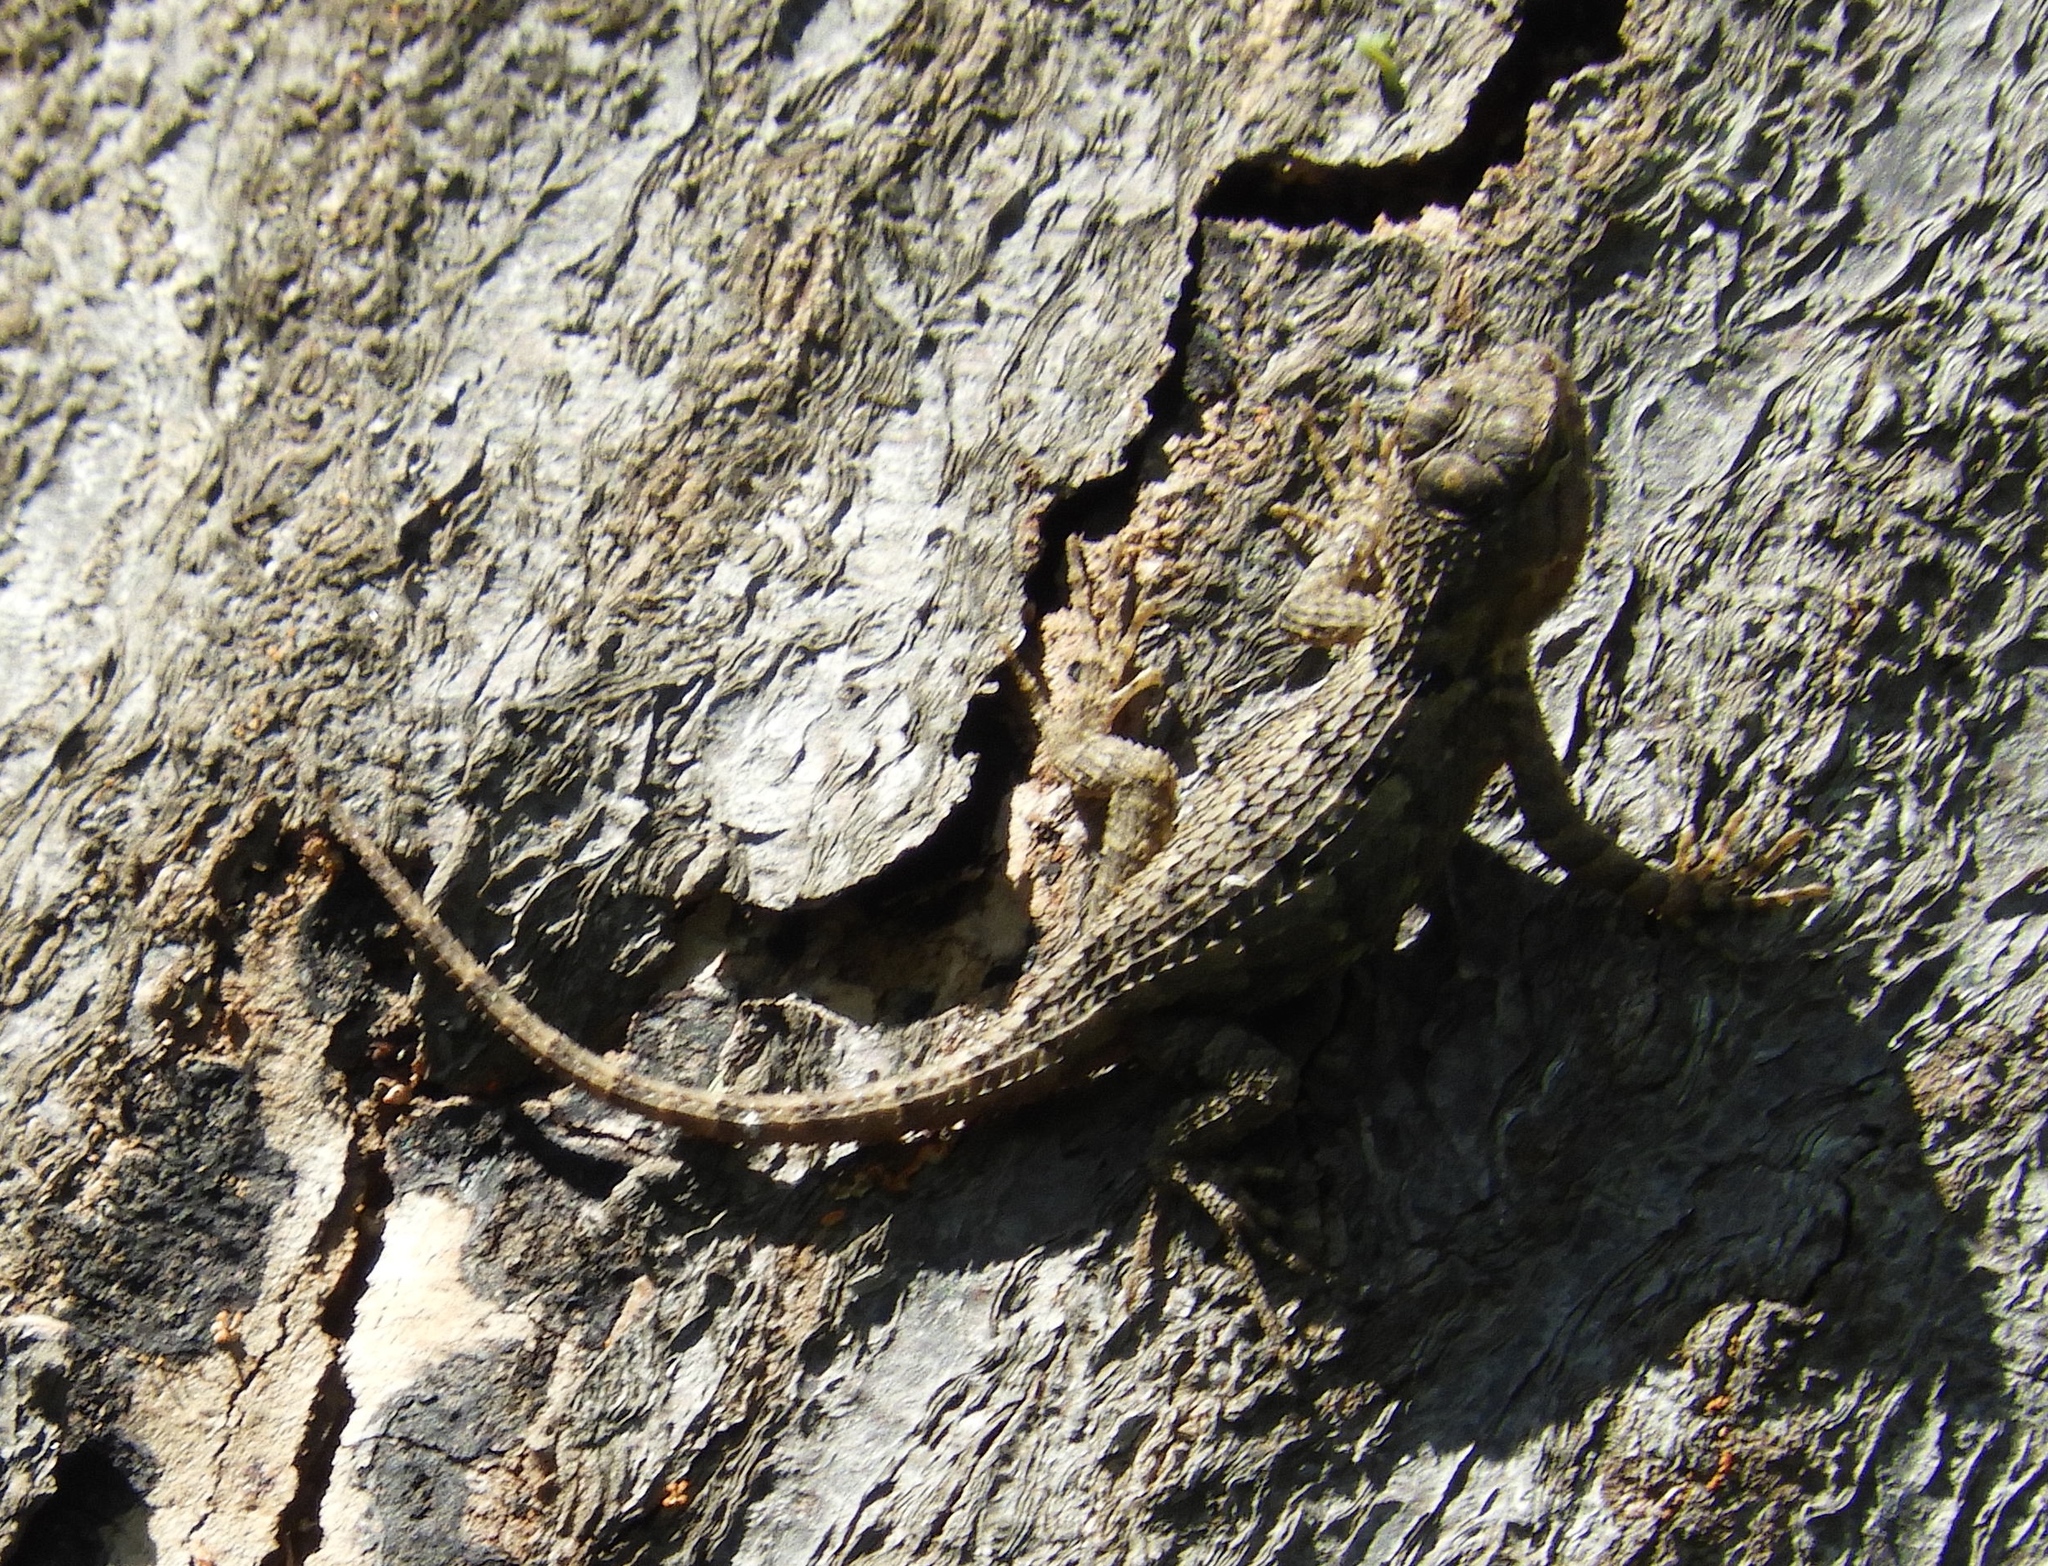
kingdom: Animalia
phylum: Chordata
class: Squamata
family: Phrynosomatidae
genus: Sceloporus
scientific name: Sceloporus clarkii
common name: Clark's spiny lizard
